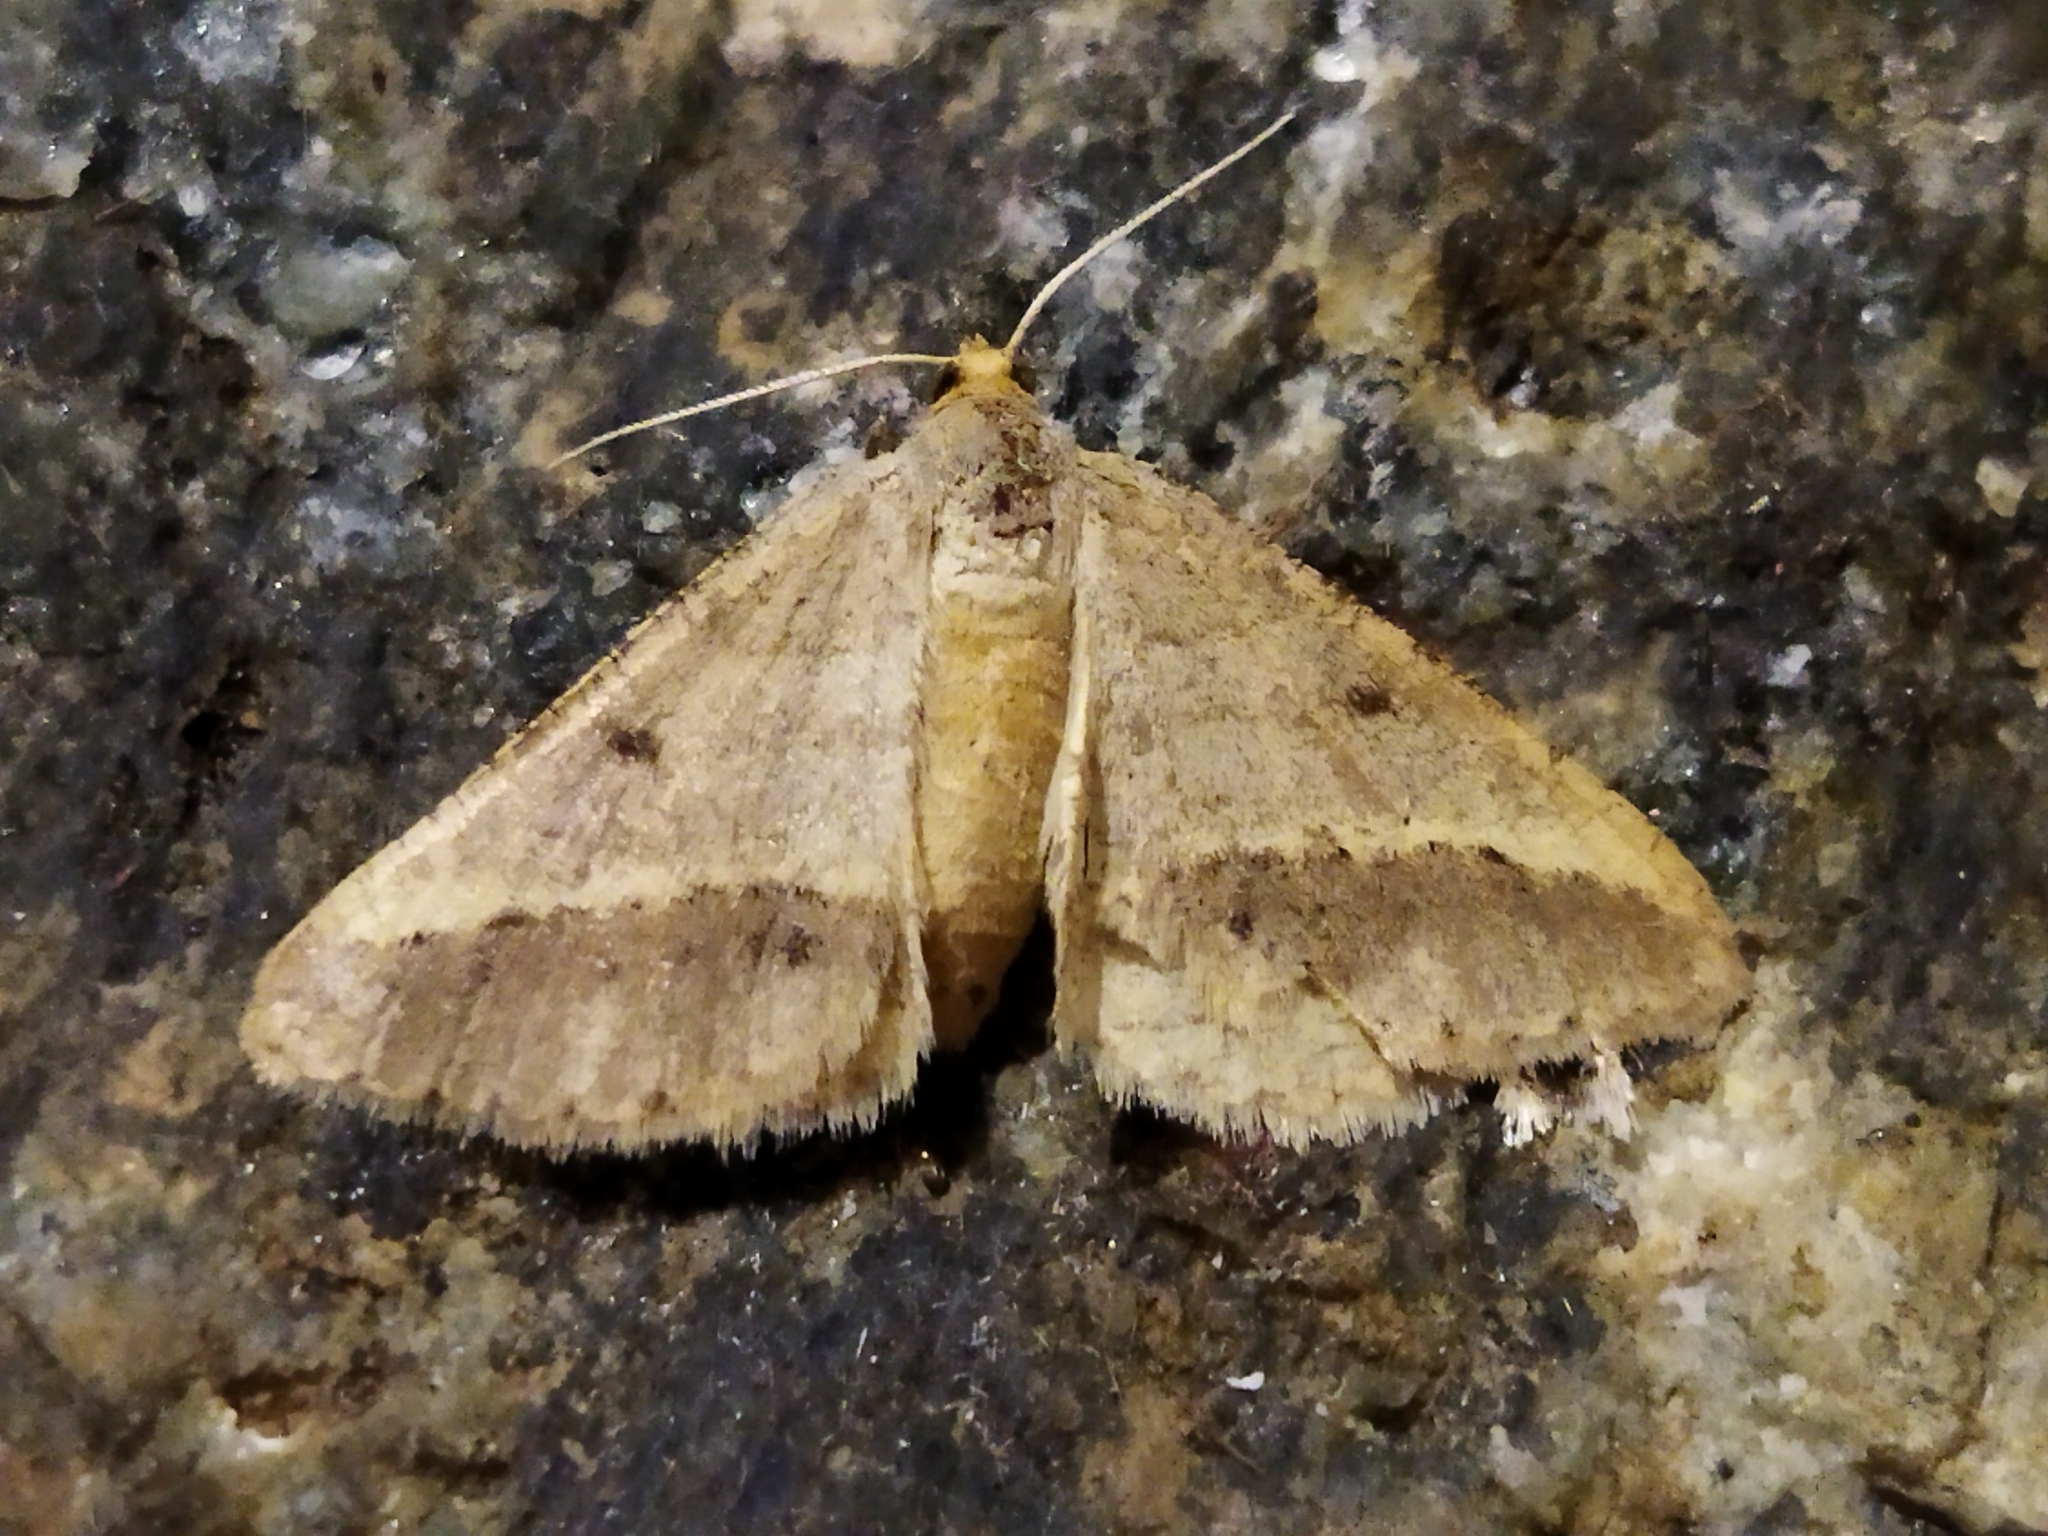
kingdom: Animalia
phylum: Arthropoda
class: Insecta
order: Lepidoptera
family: Geometridae
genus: Tephrina
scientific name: Tephrina arenacearia
